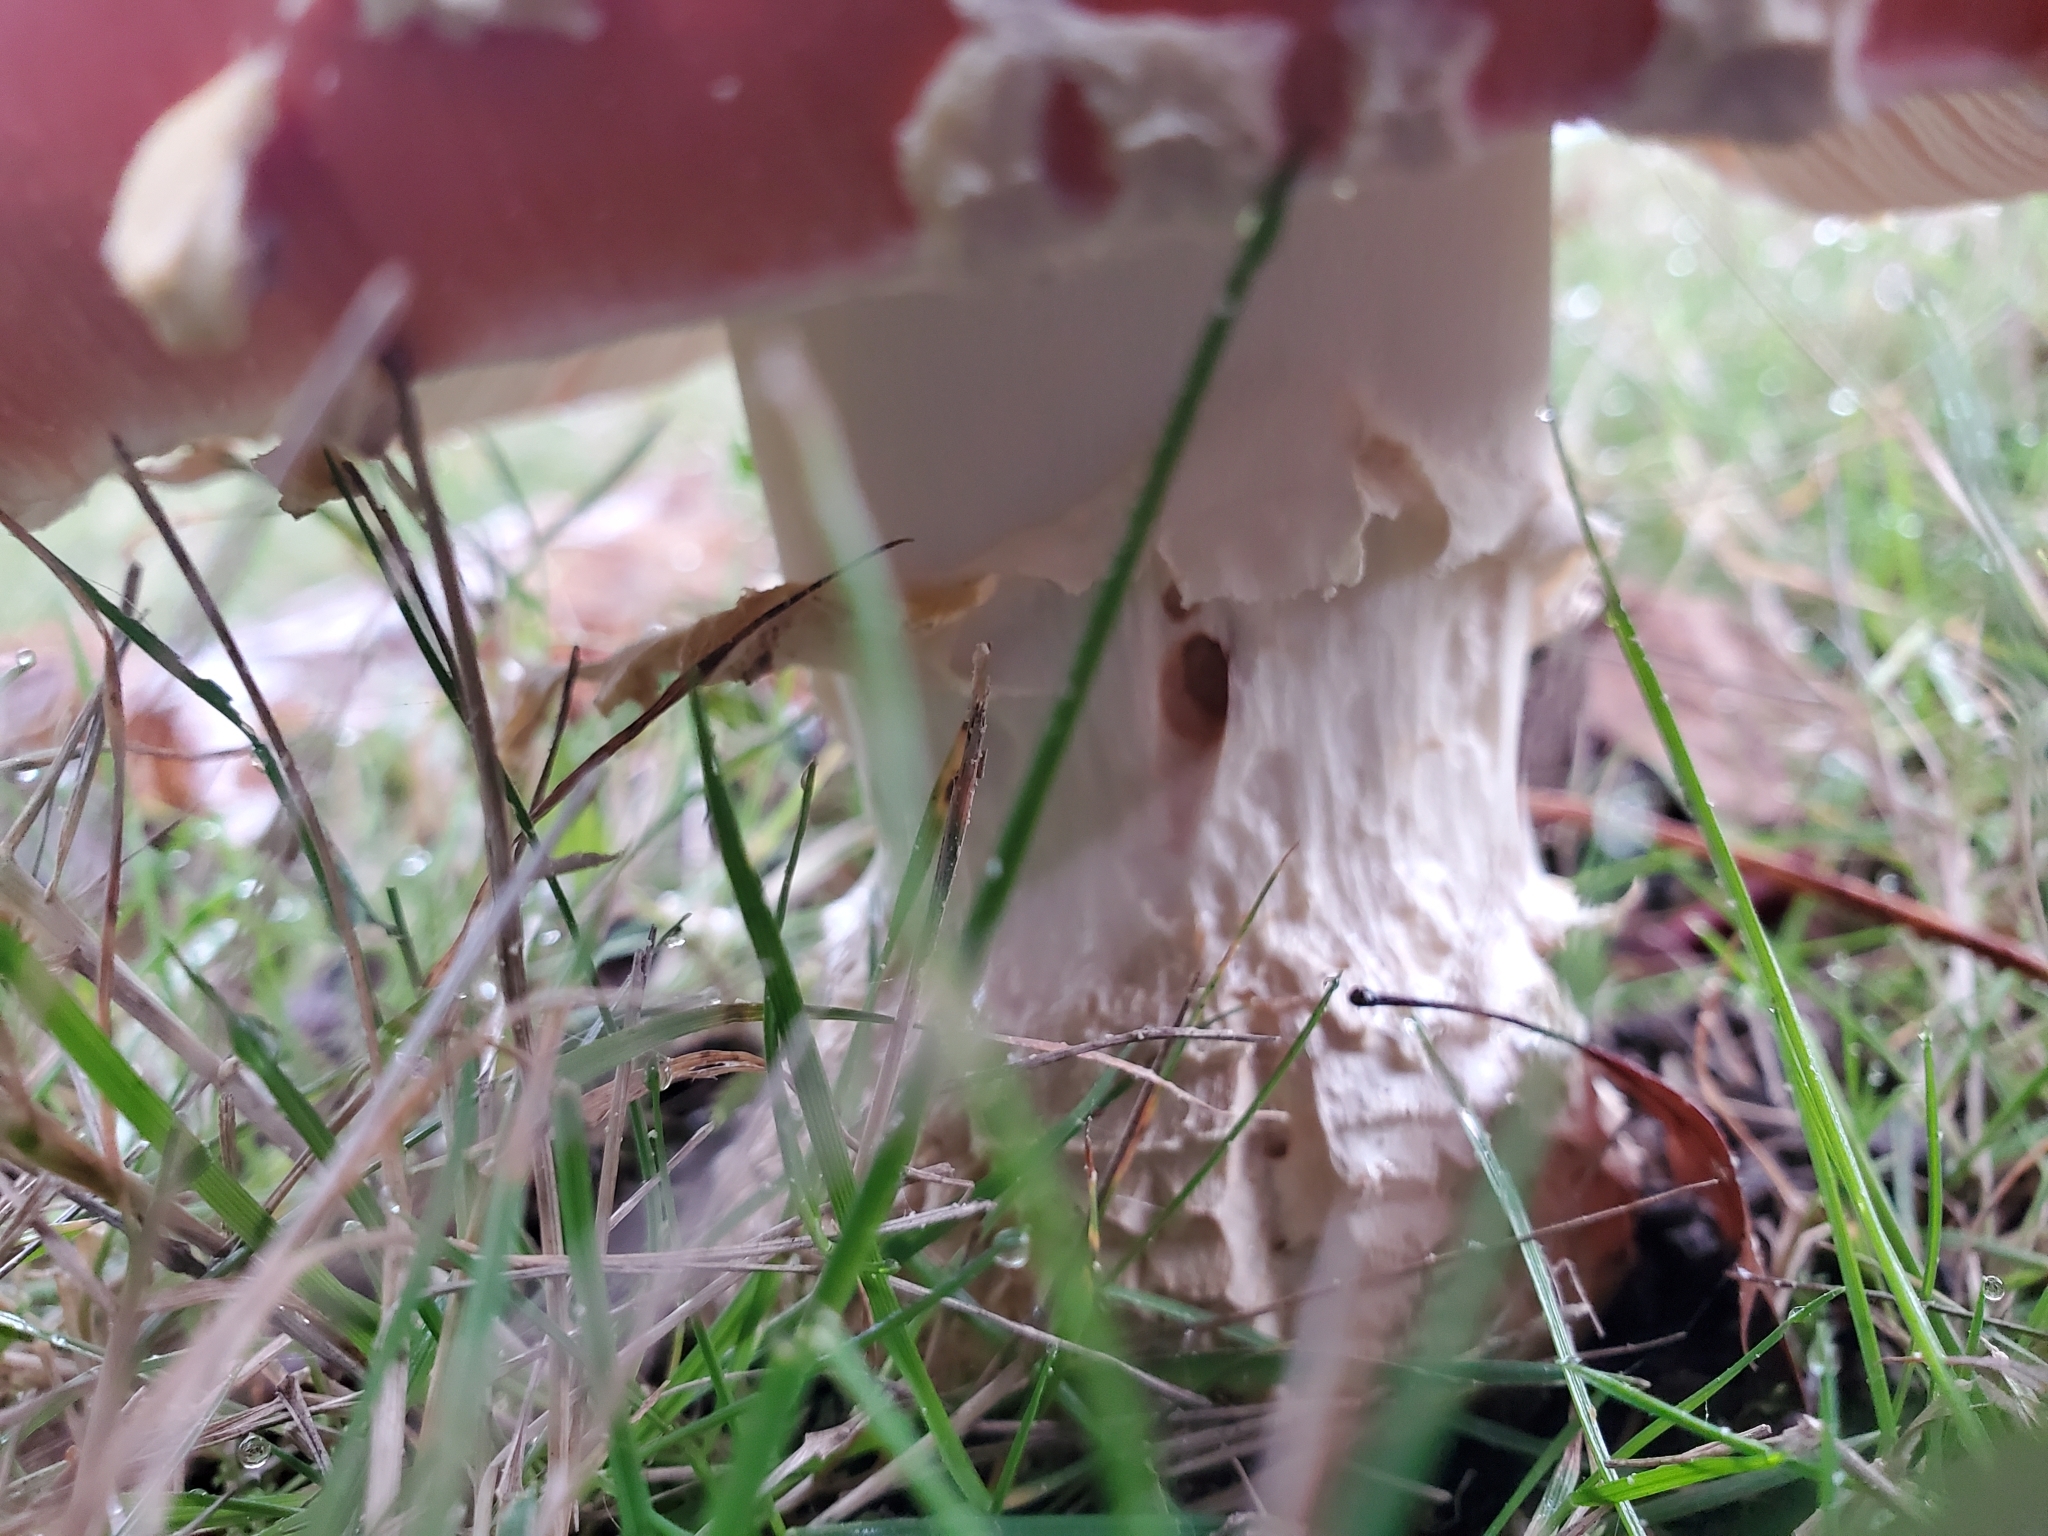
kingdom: Fungi
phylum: Basidiomycota
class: Agaricomycetes
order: Agaricales
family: Amanitaceae
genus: Amanita
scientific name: Amanita muscaria
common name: Fly agaric
